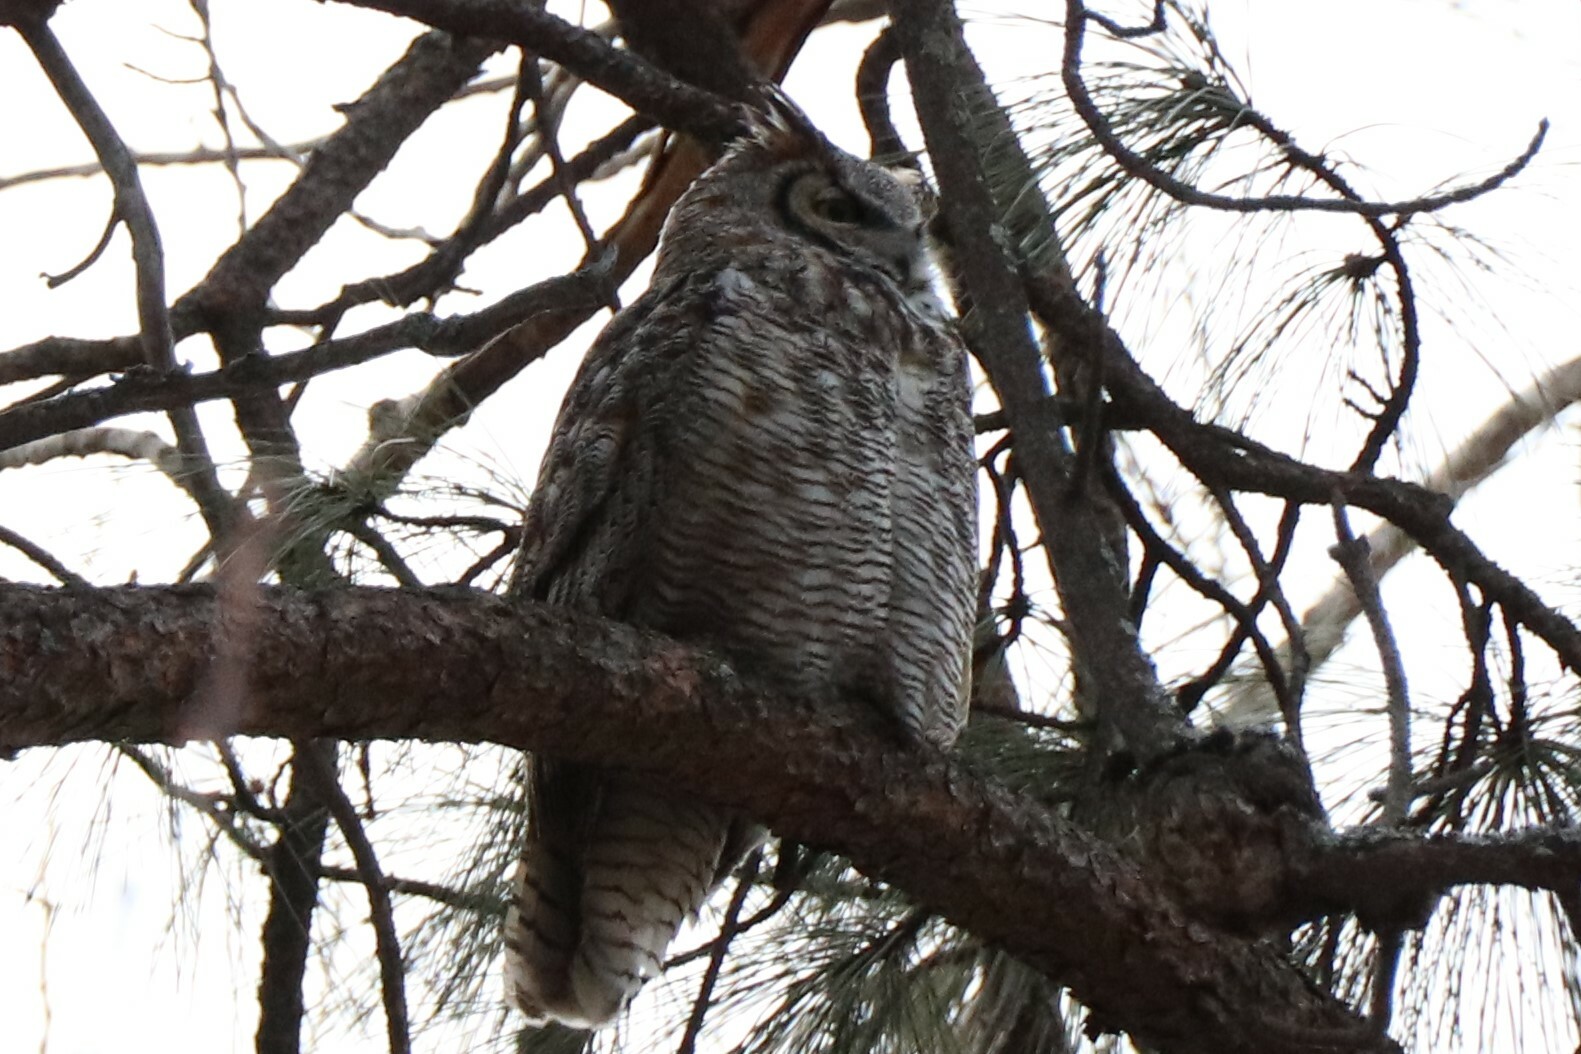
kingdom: Animalia
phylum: Chordata
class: Aves
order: Strigiformes
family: Strigidae
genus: Bubo
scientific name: Bubo virginianus
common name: Great horned owl
